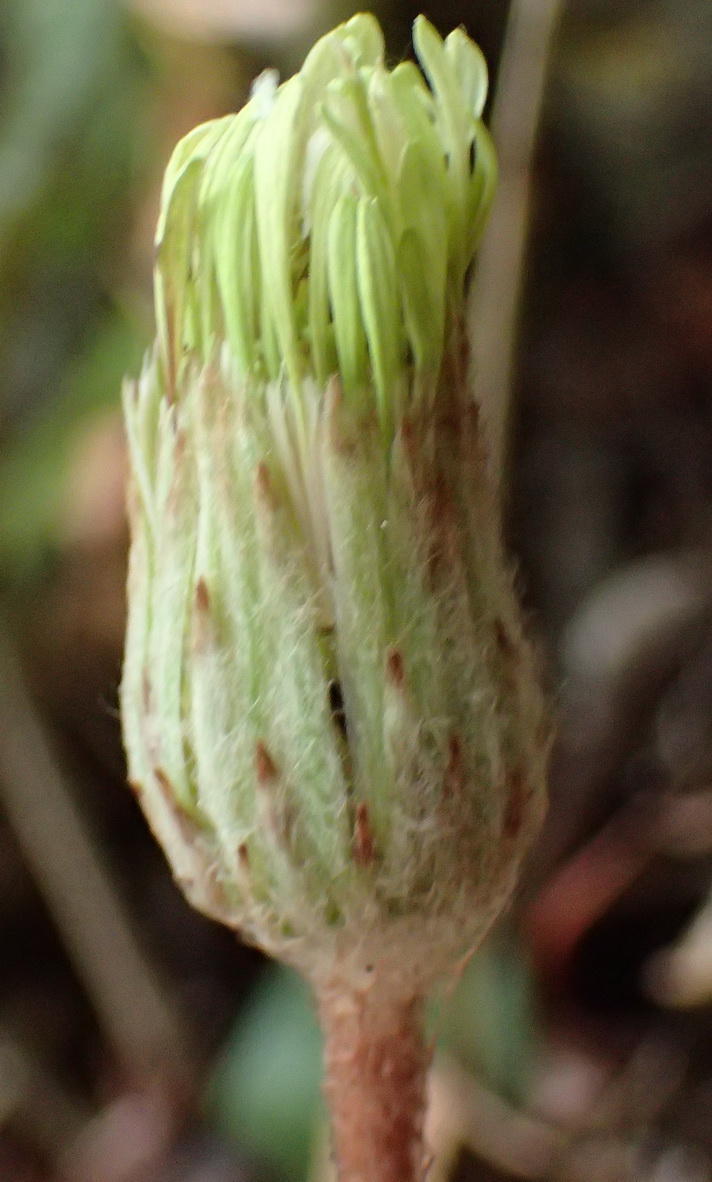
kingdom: Plantae
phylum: Tracheophyta
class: Magnoliopsida
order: Asterales
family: Asteraceae
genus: Piloselloides
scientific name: Piloselloides cordata
